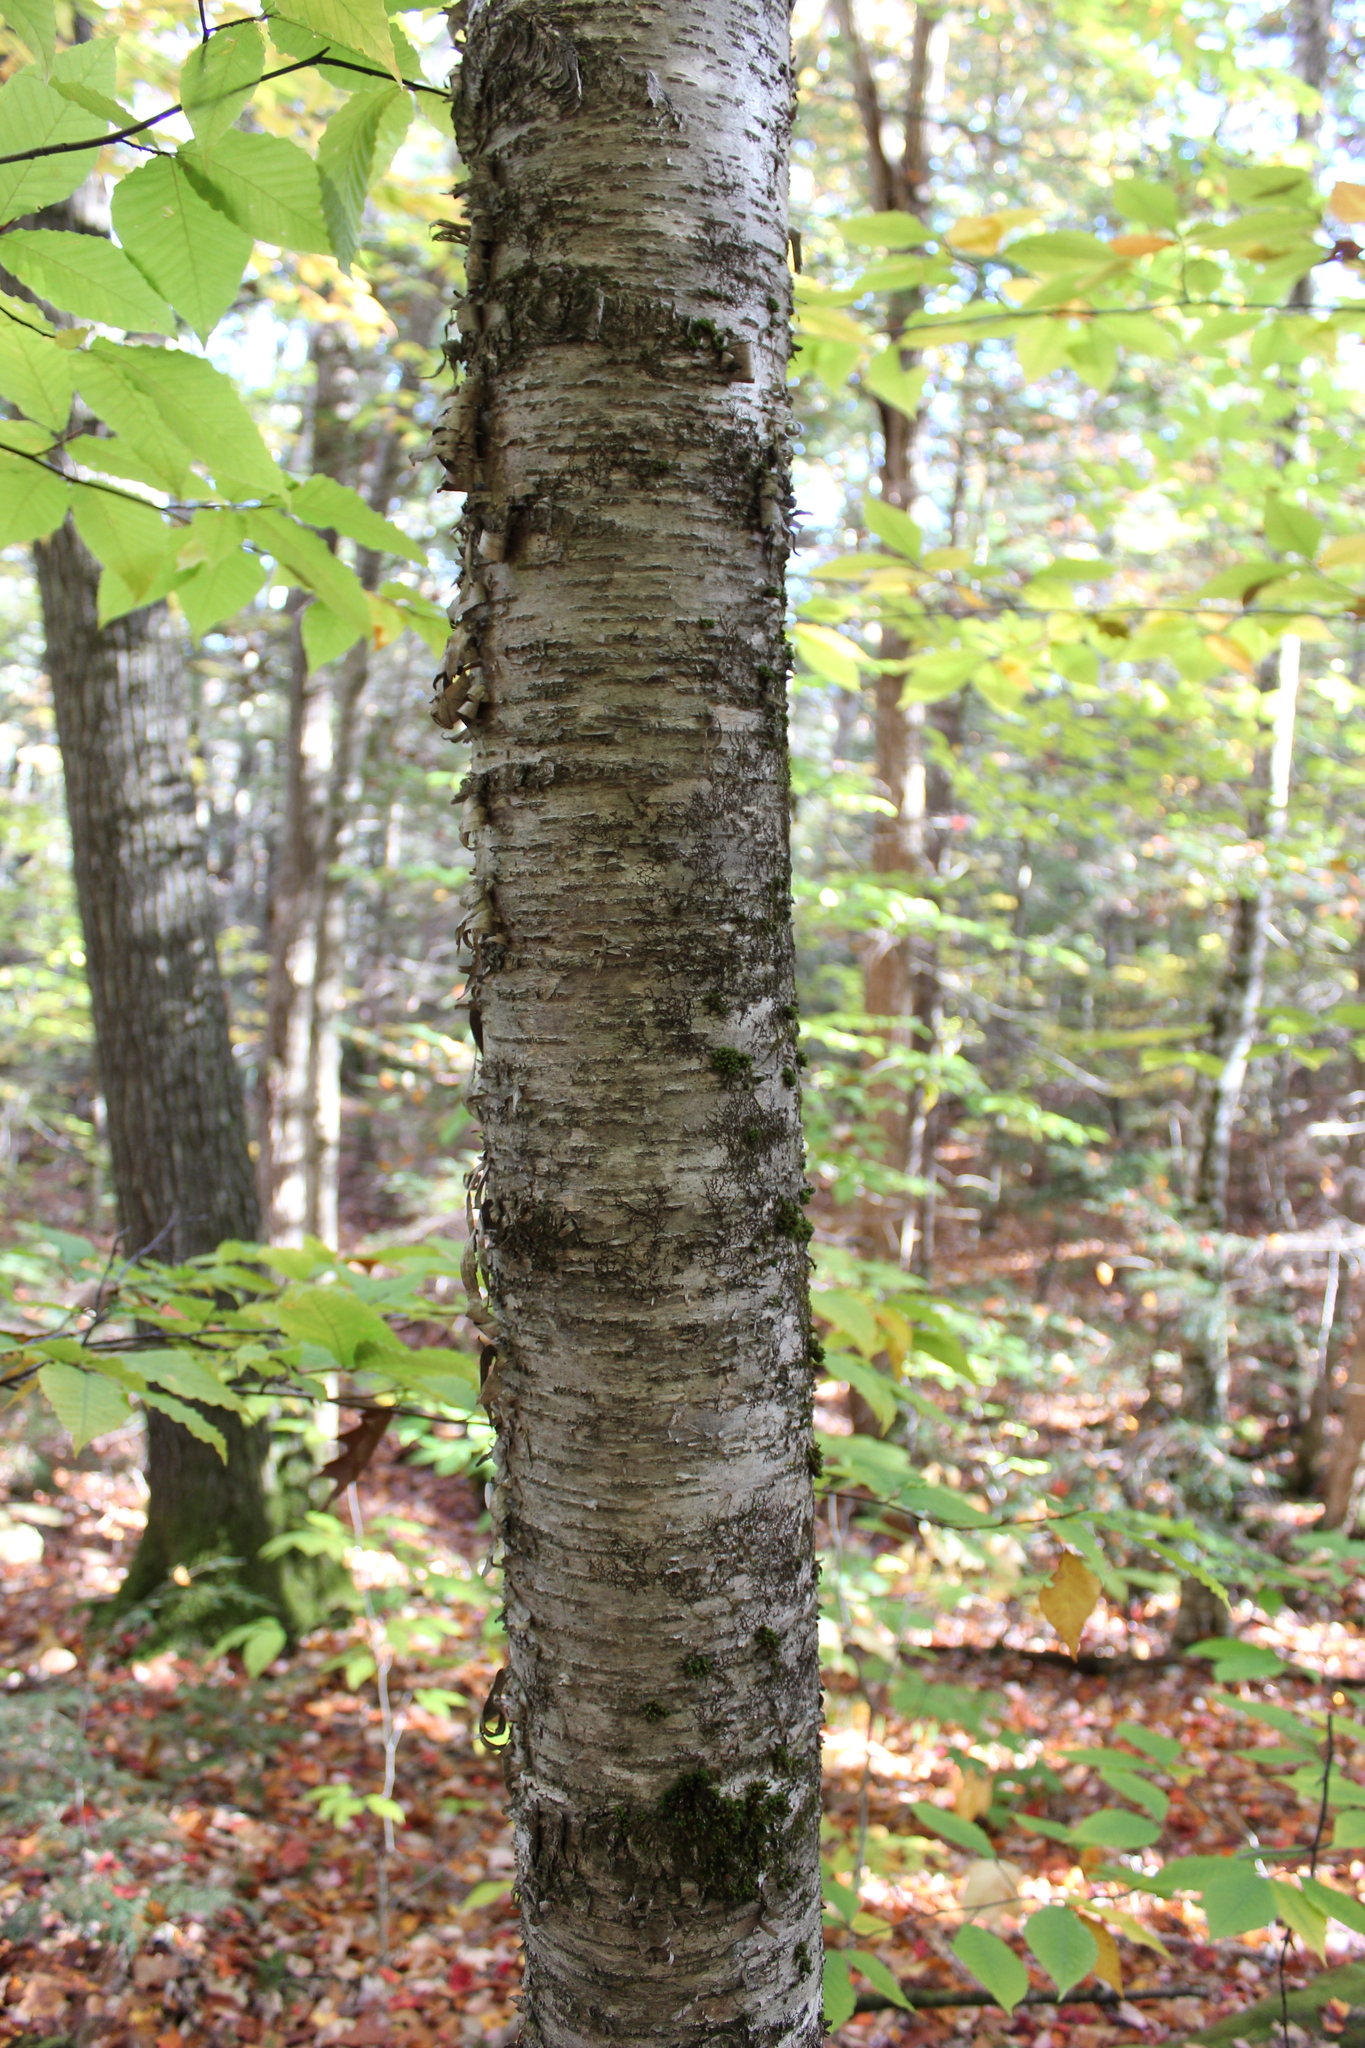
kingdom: Plantae
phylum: Tracheophyta
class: Magnoliopsida
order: Fagales
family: Betulaceae
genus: Betula
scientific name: Betula alleghaniensis
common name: Yellow birch
